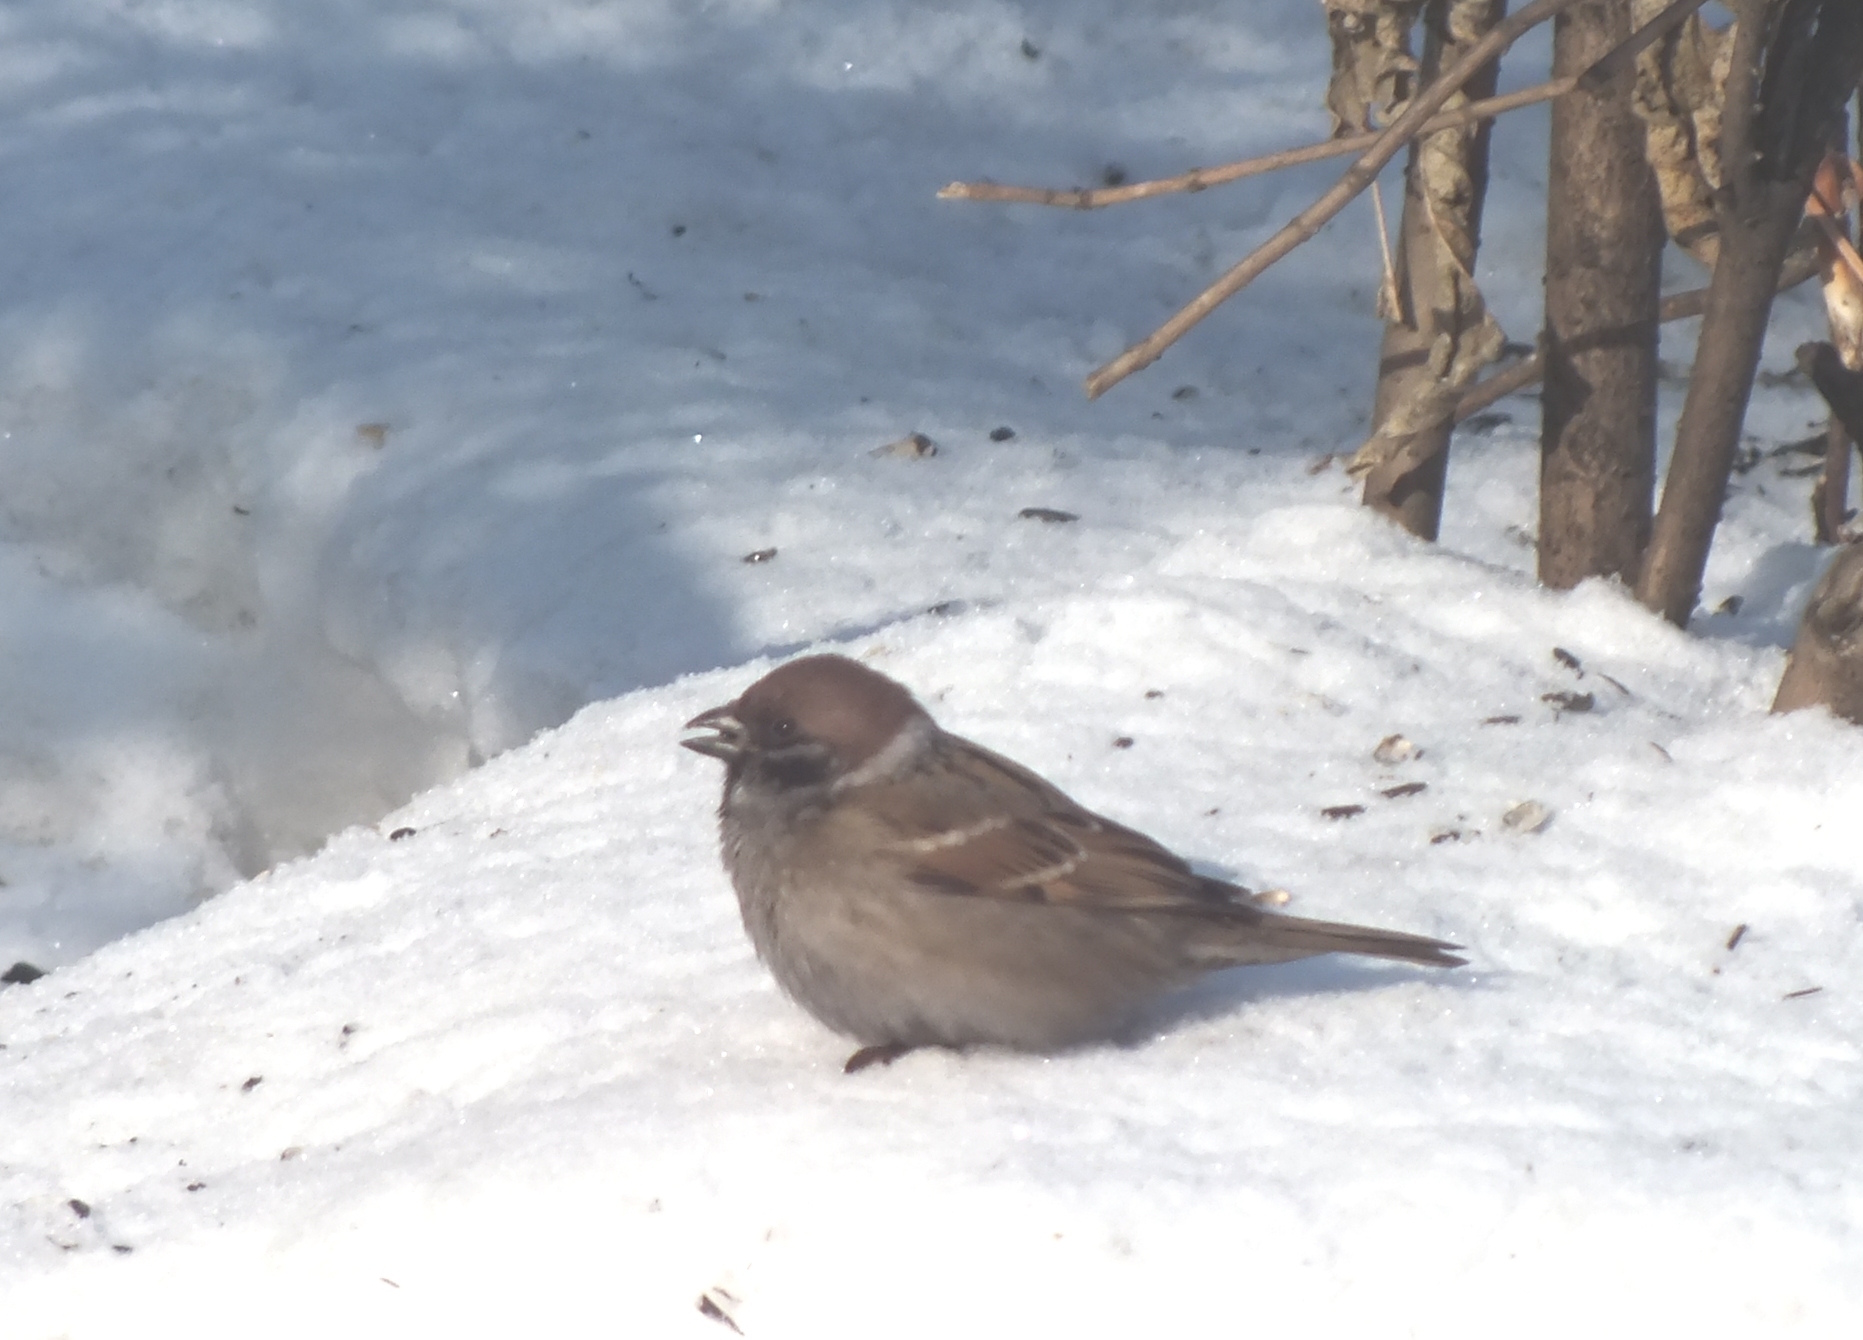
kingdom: Animalia
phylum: Chordata
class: Aves
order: Passeriformes
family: Passeridae
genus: Passer
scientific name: Passer montanus
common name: Eurasian tree sparrow
